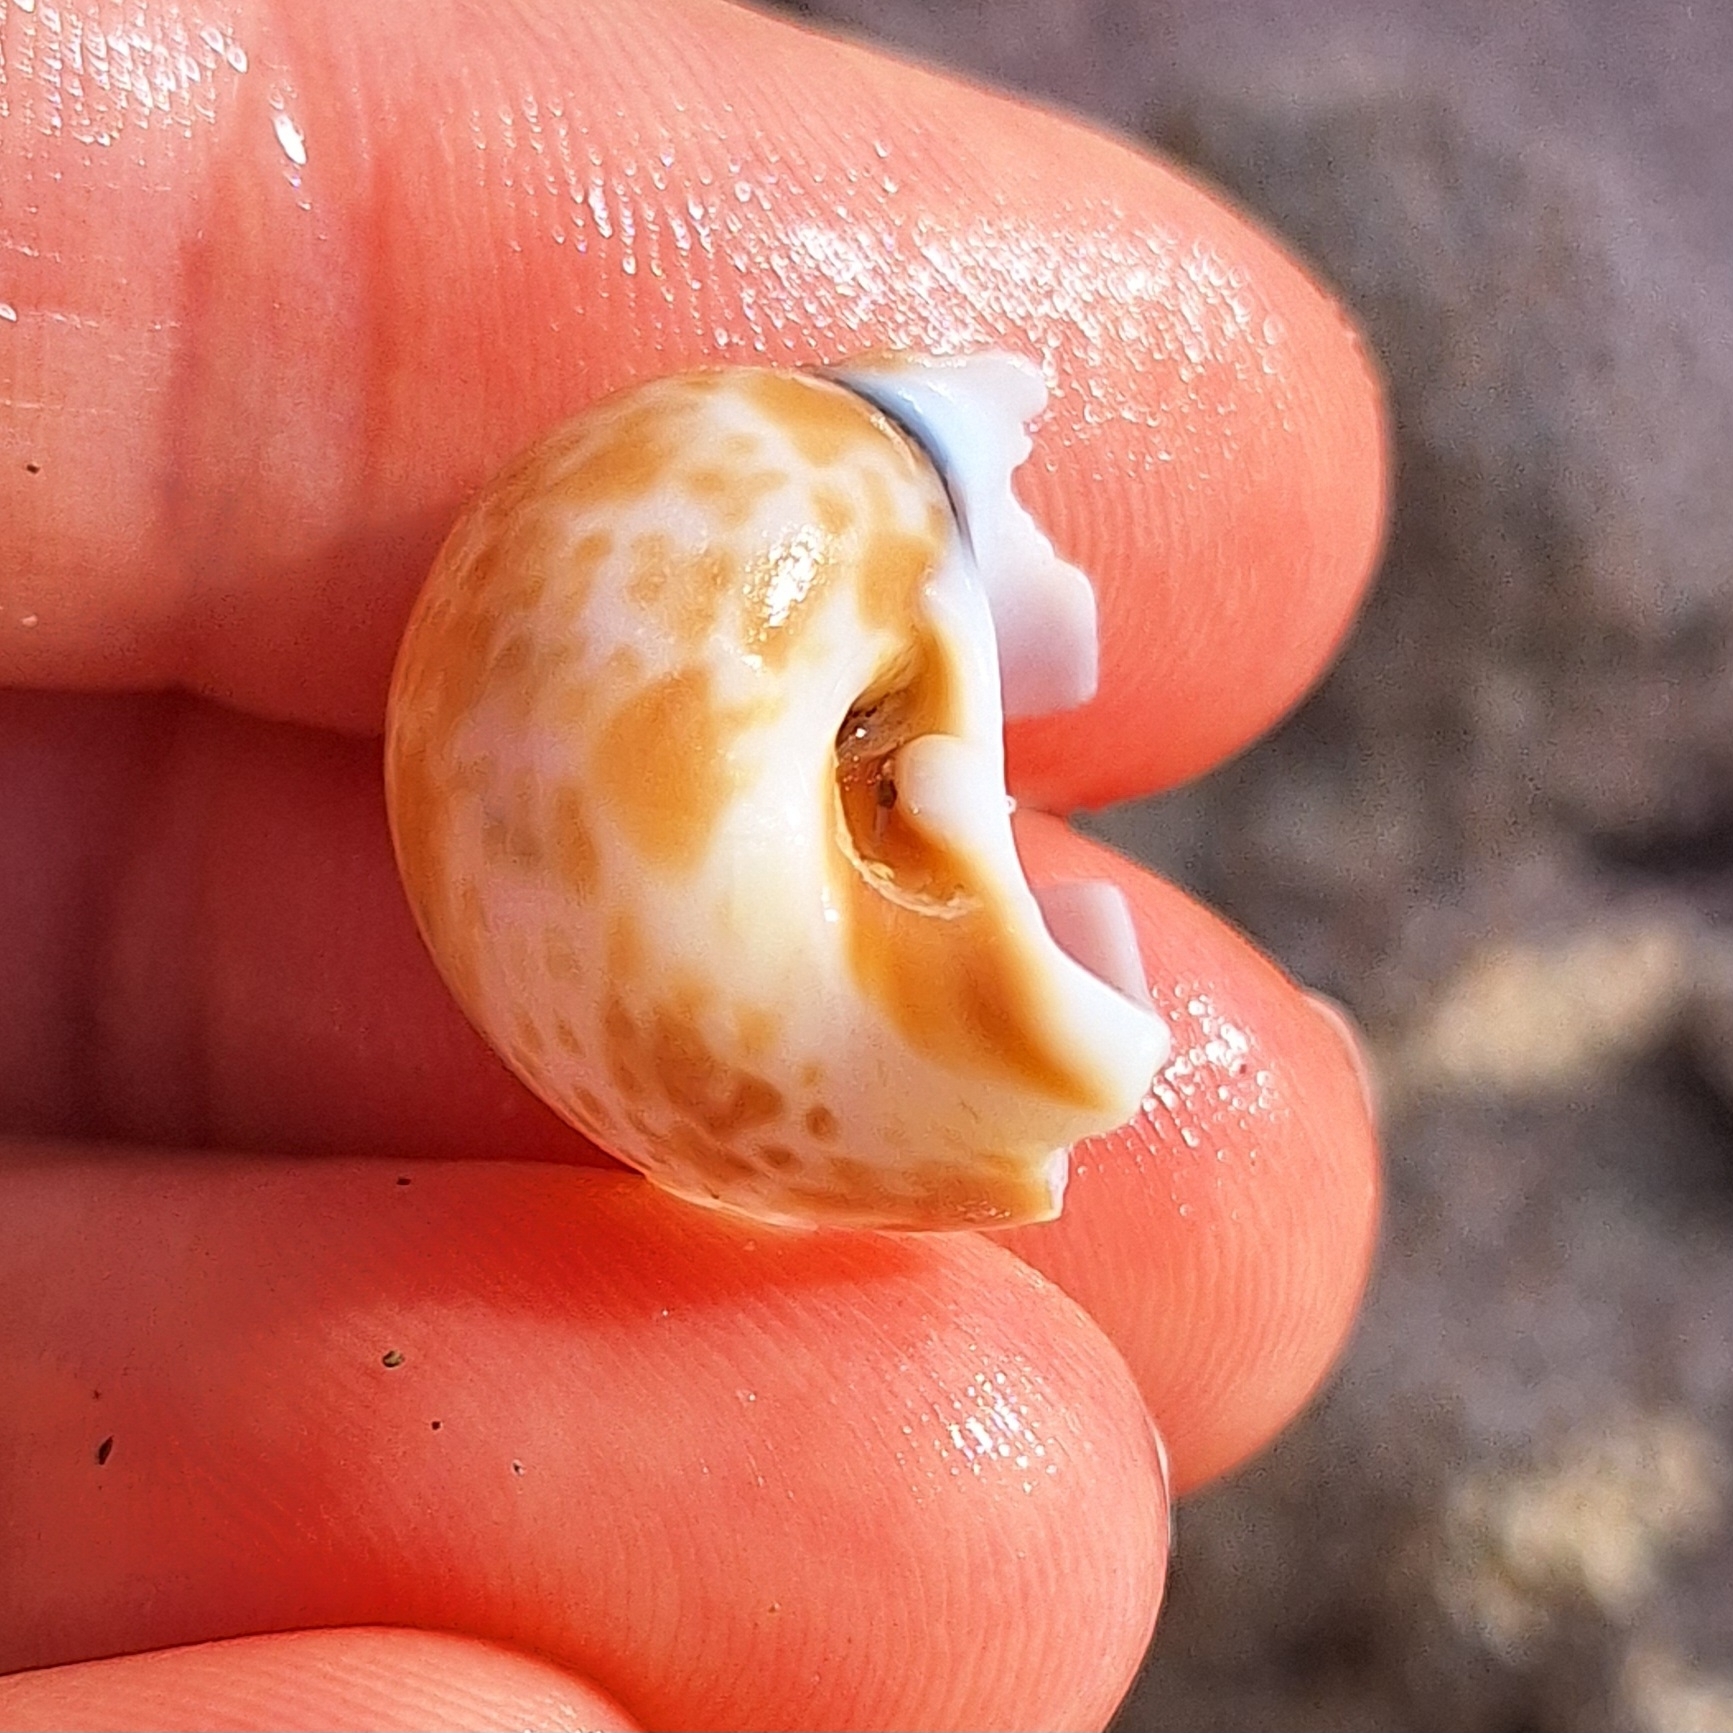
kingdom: Animalia
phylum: Mollusca
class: Gastropoda
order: Littorinimorpha
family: Naticidae
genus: Naticarius
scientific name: Naticarius hebraeus
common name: Hebrew moon shell
